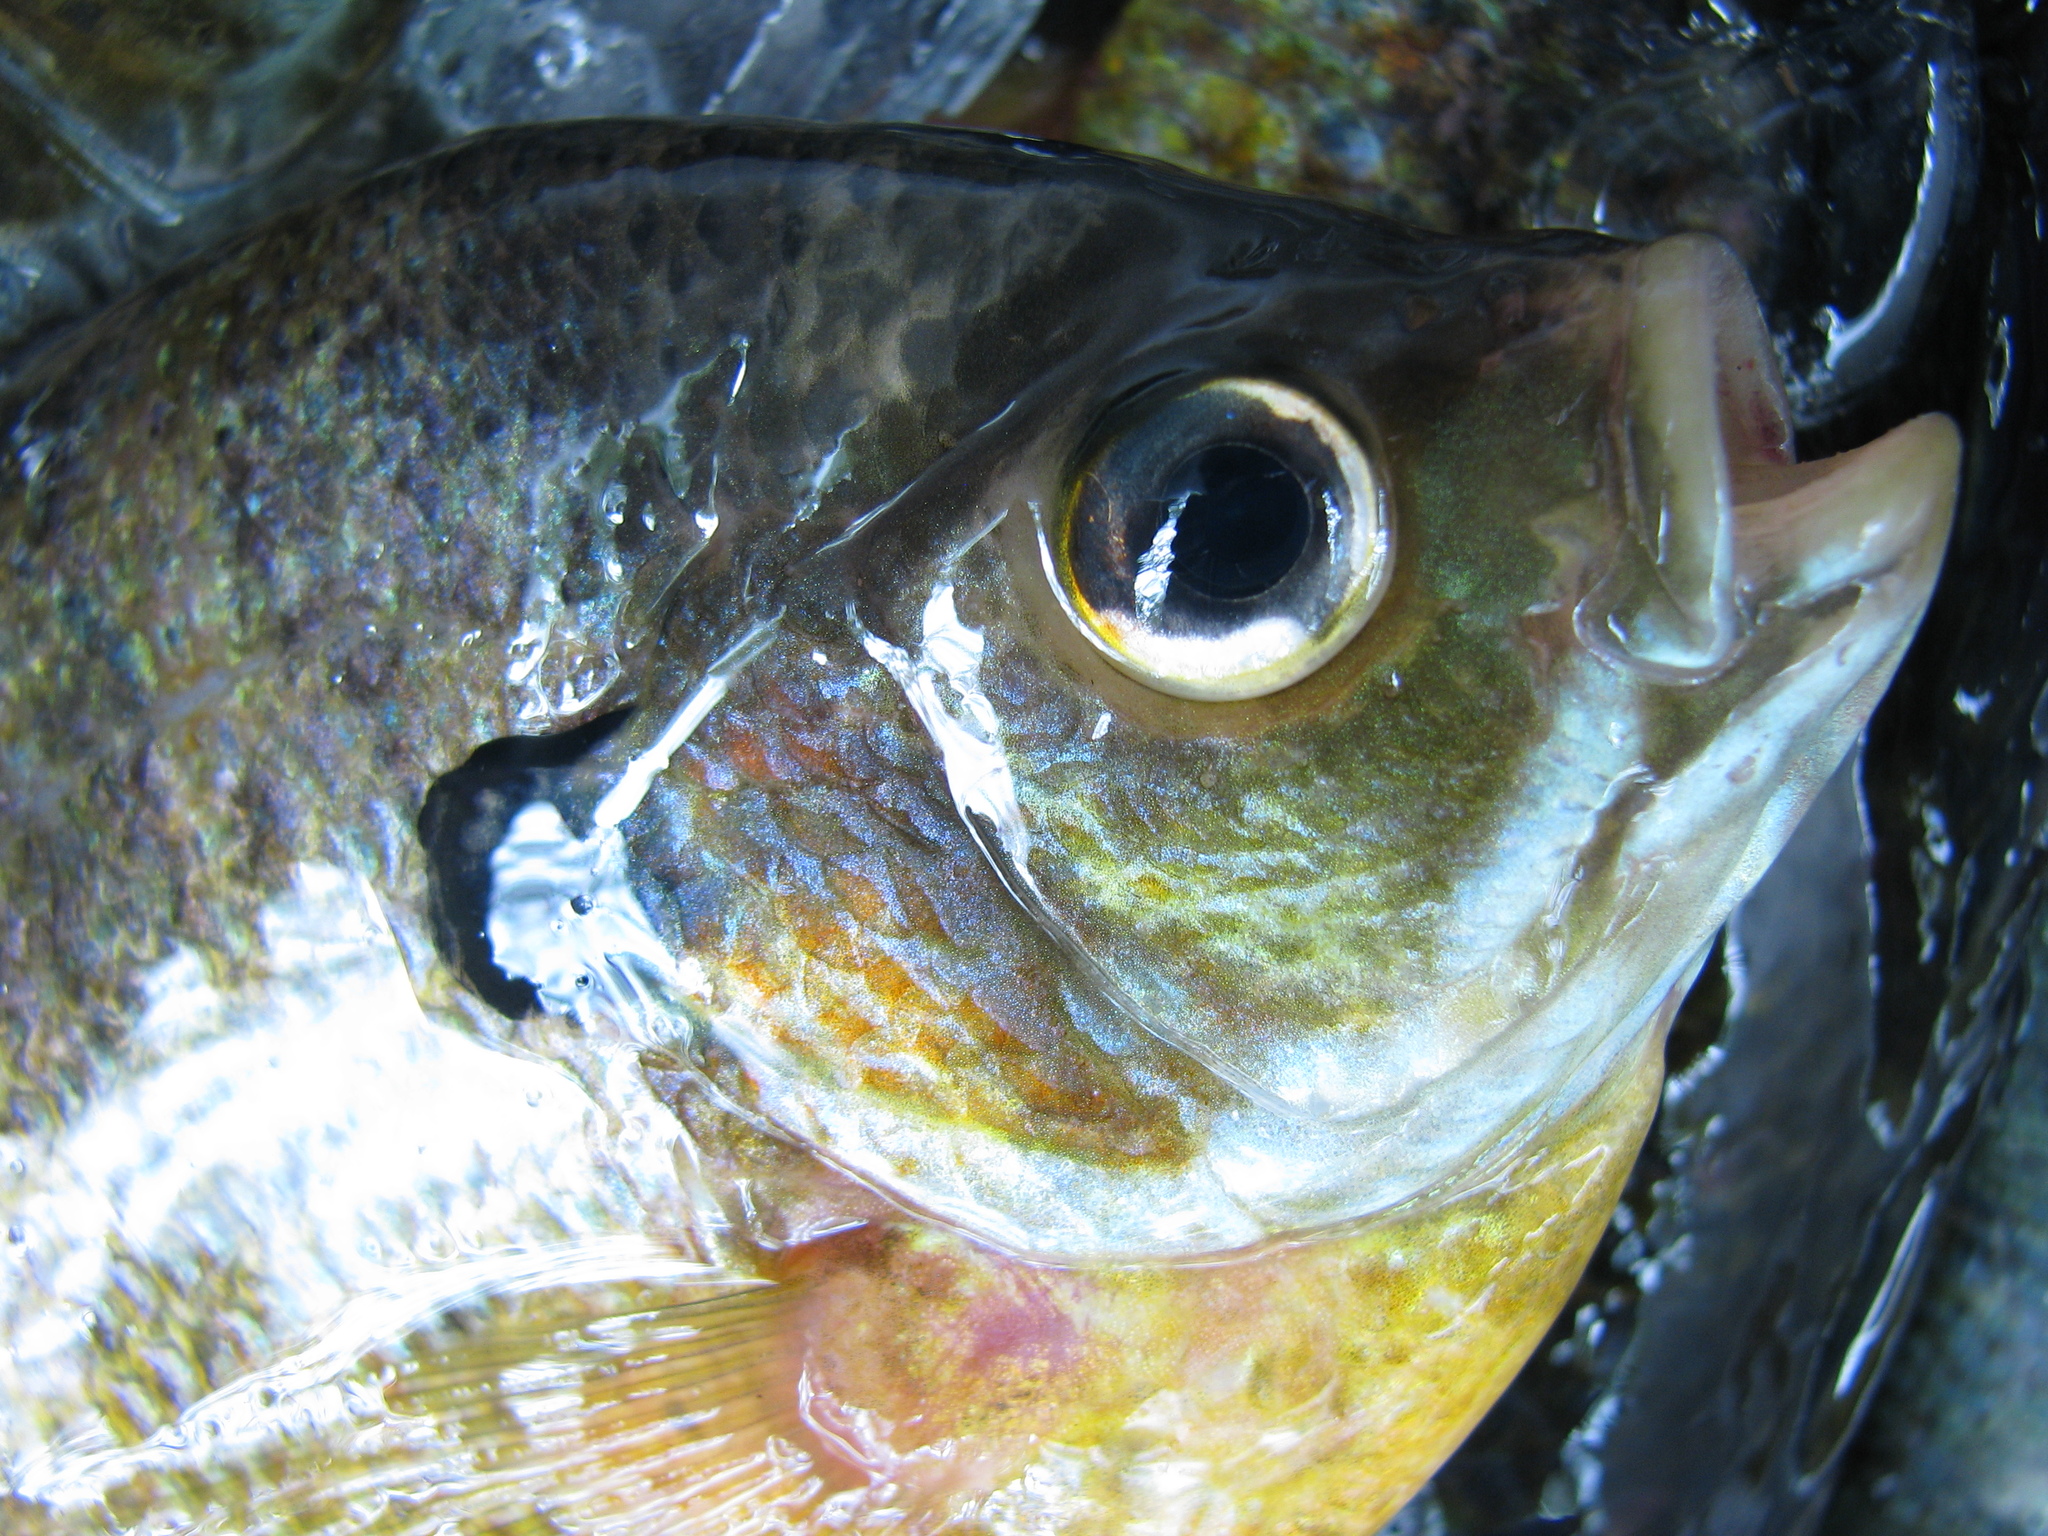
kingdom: Animalia
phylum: Chordata
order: Perciformes
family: Centrarchidae
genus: Lepomis
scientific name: Lepomis macrochirus
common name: Bluegill
